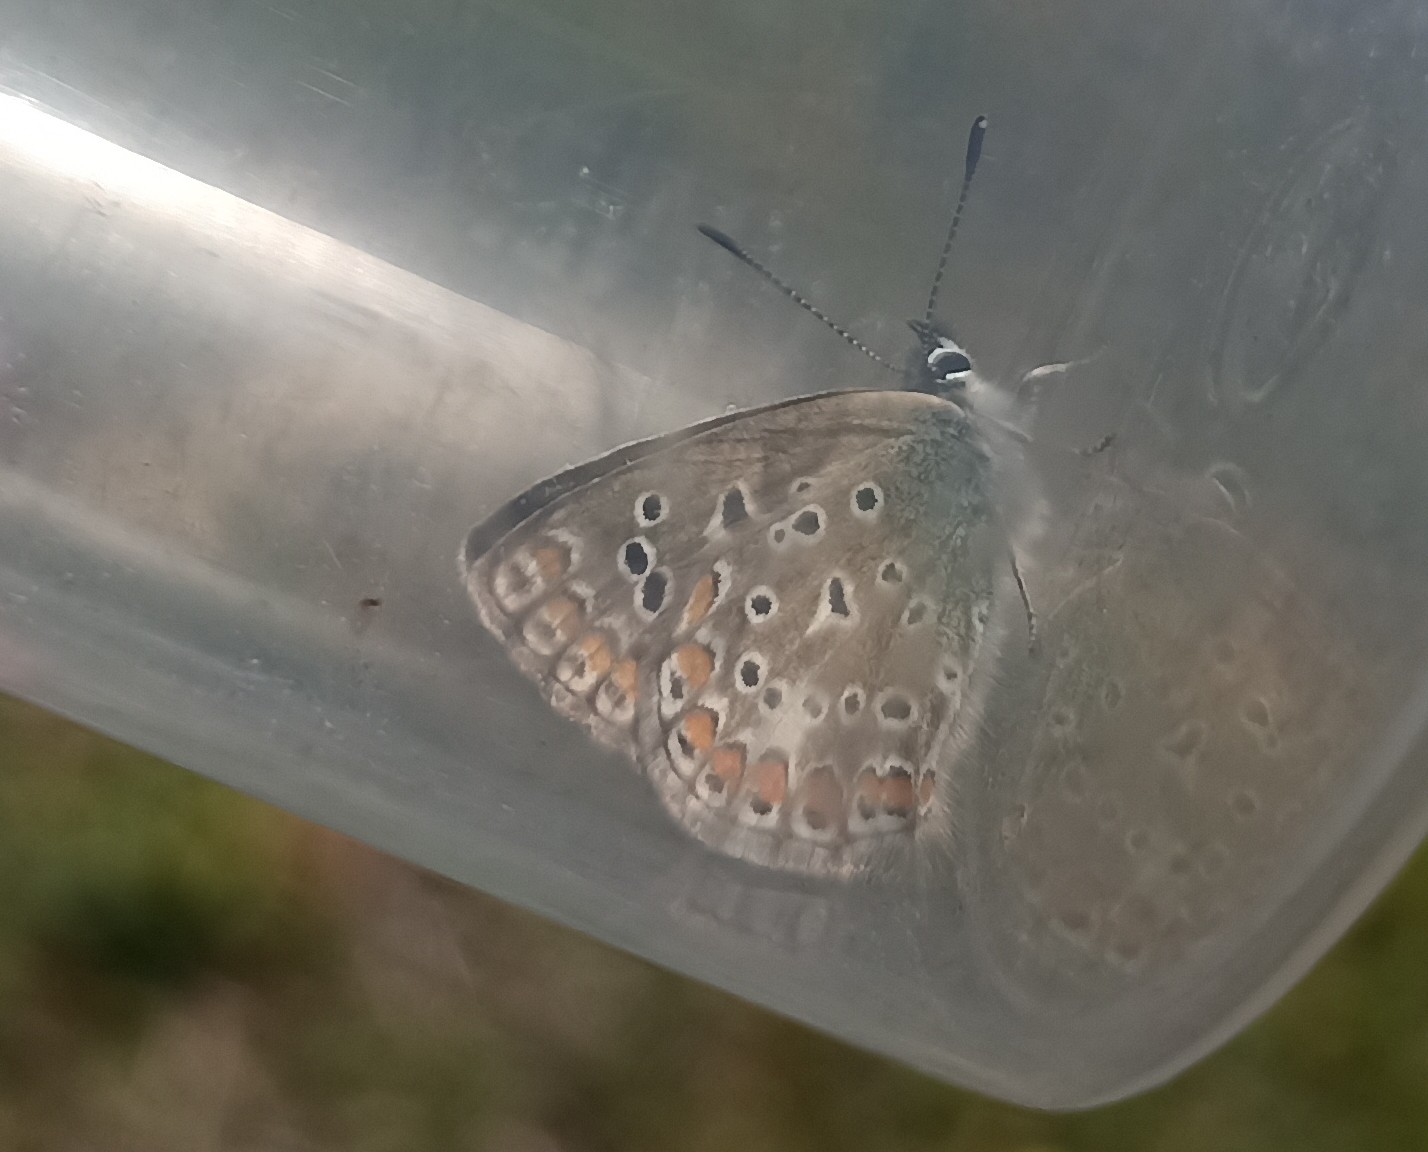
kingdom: Animalia
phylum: Arthropoda
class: Insecta
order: Lepidoptera
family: Lycaenidae
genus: Polyommatus
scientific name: Polyommatus icarus
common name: Common blue
